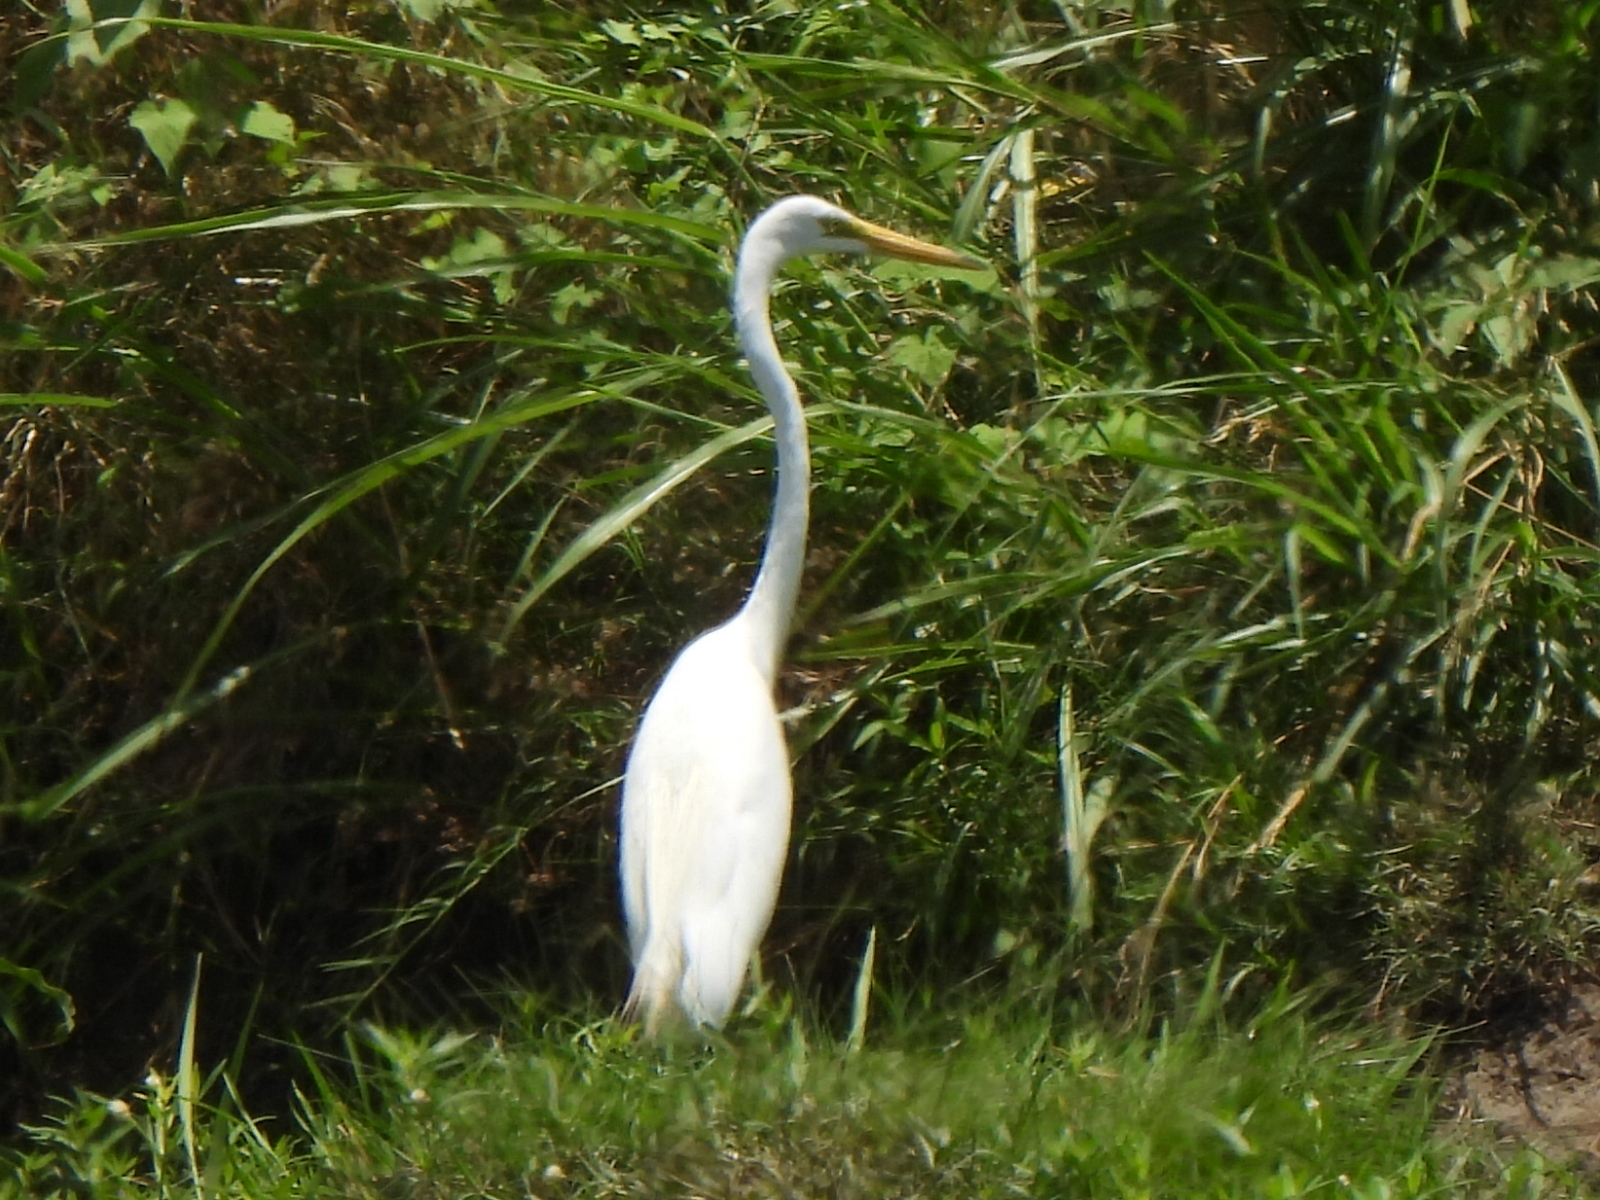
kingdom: Animalia
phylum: Chordata
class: Aves
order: Pelecaniformes
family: Ardeidae
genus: Ardea
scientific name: Ardea alba
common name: Great egret
